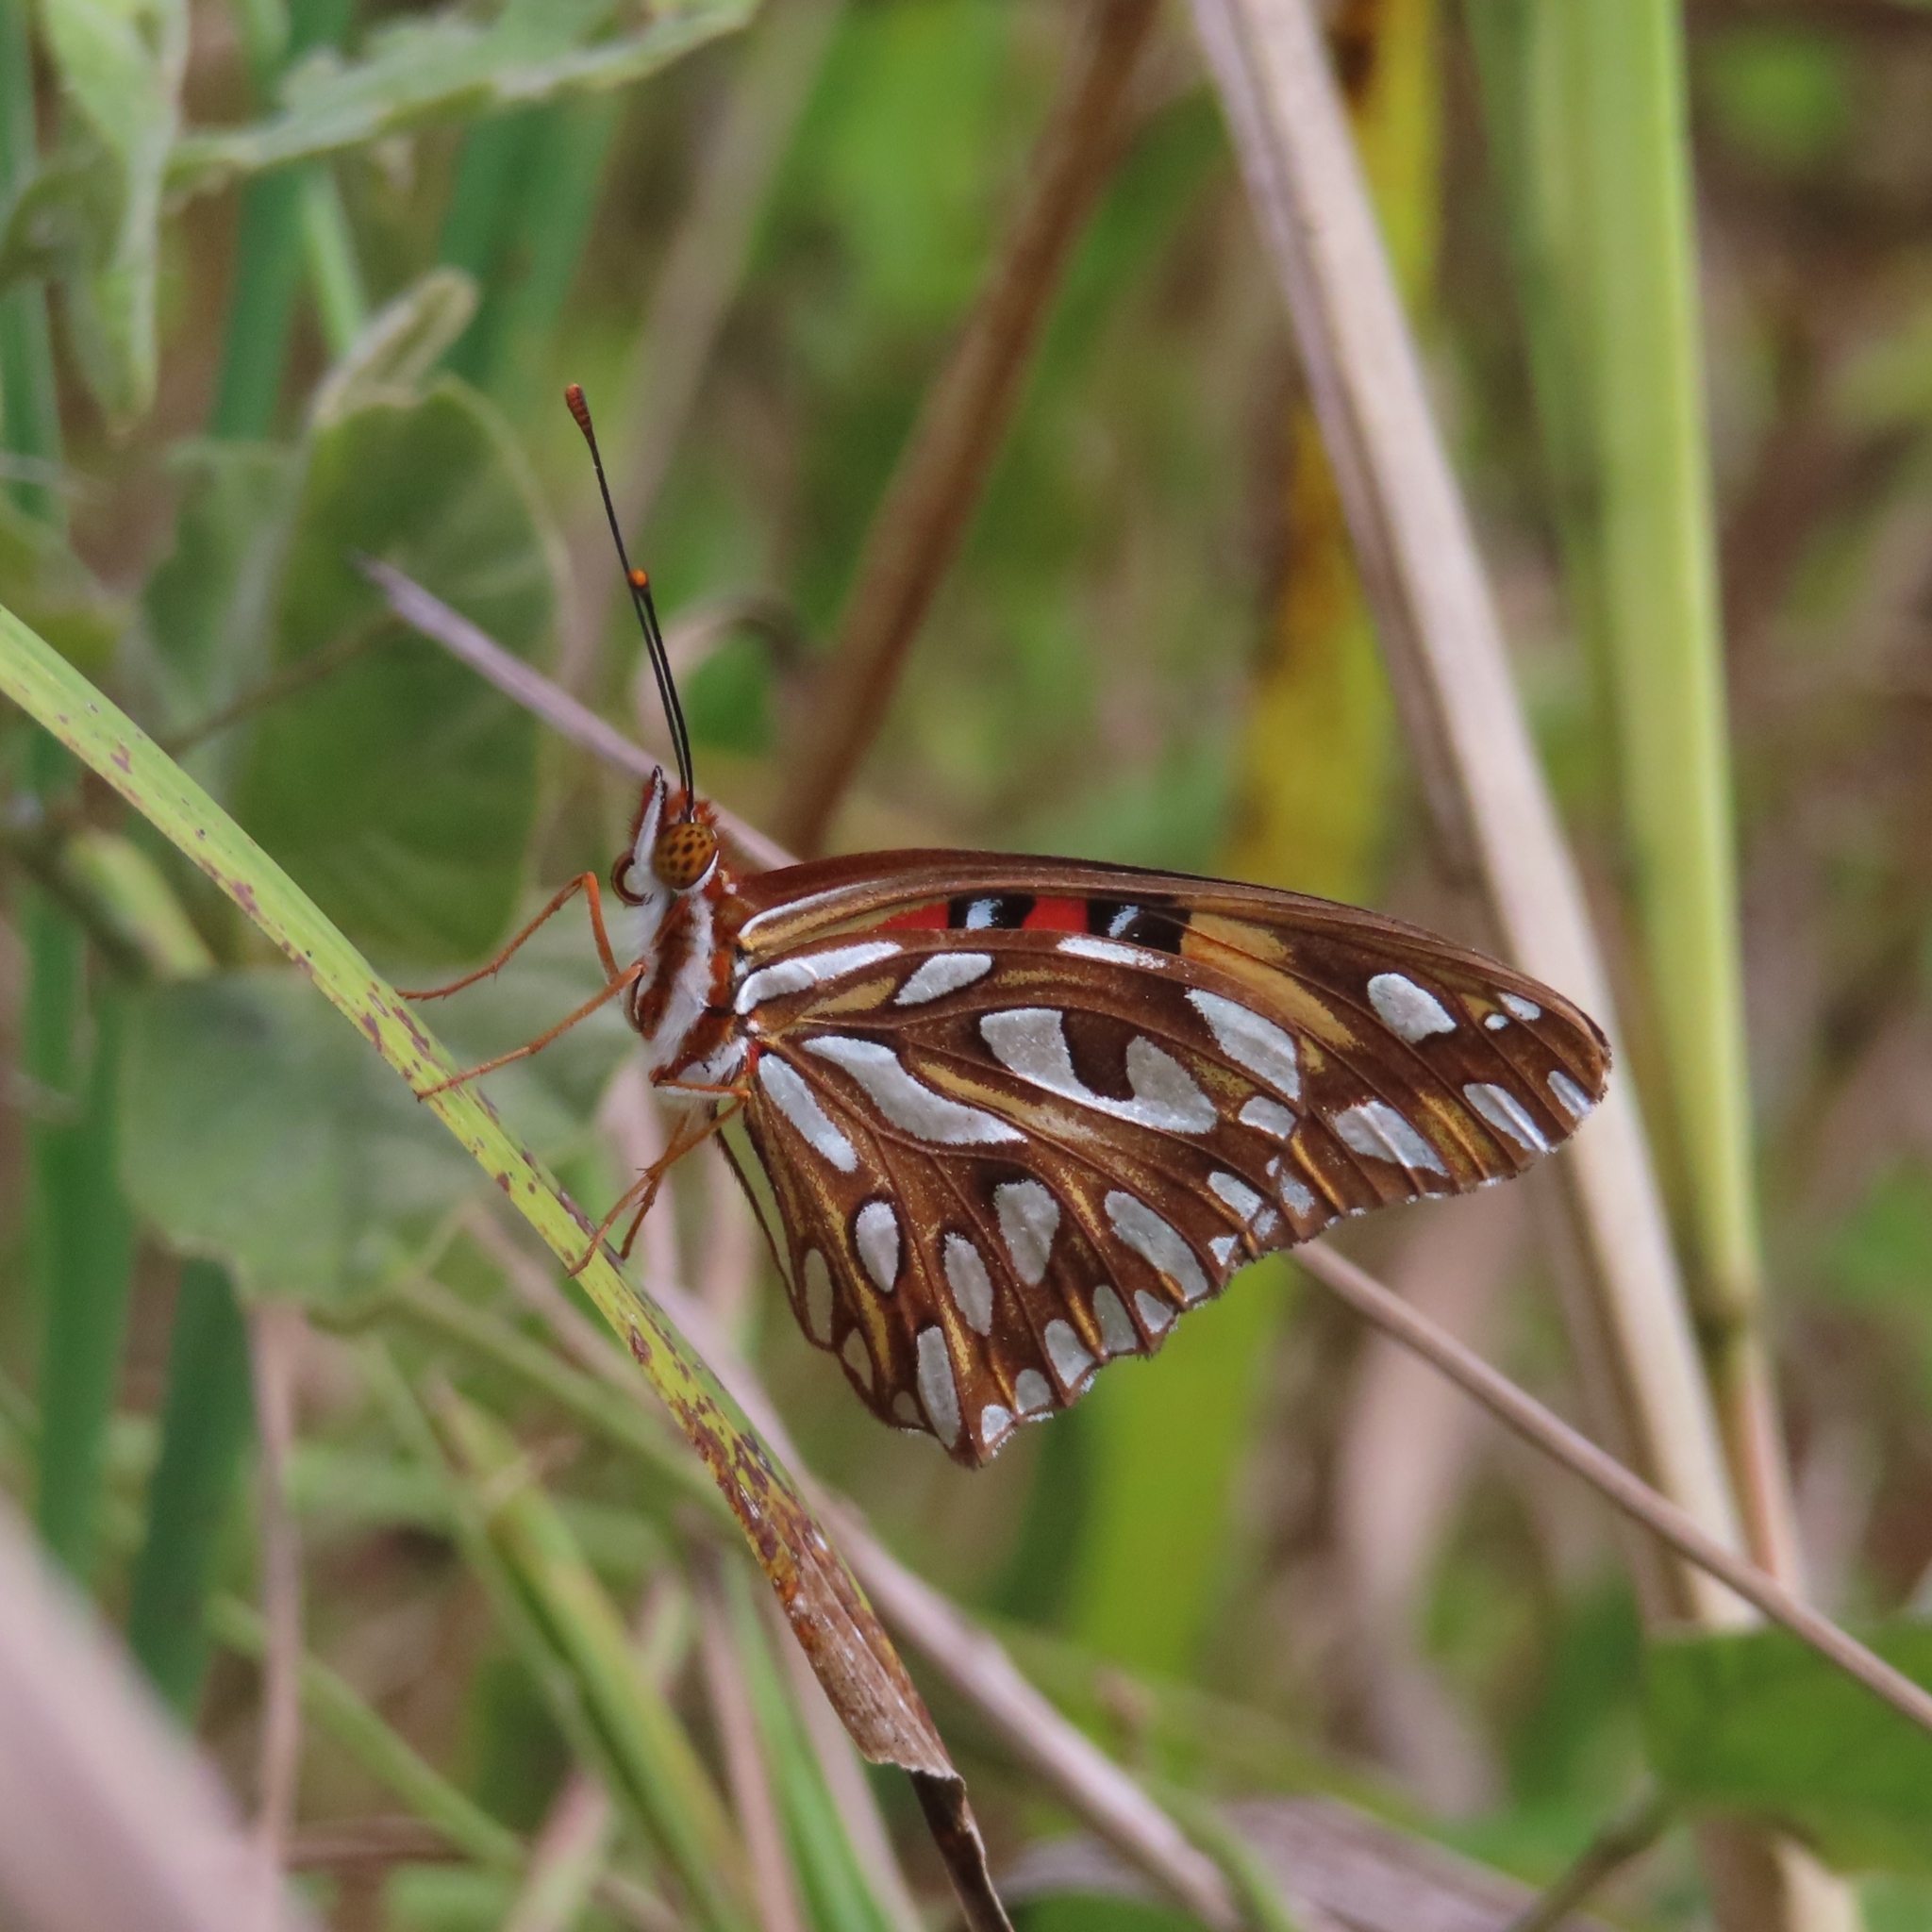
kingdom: Animalia
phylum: Arthropoda
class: Insecta
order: Lepidoptera
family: Nymphalidae
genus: Dione
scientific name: Dione vanillae
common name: Gulf fritillary
